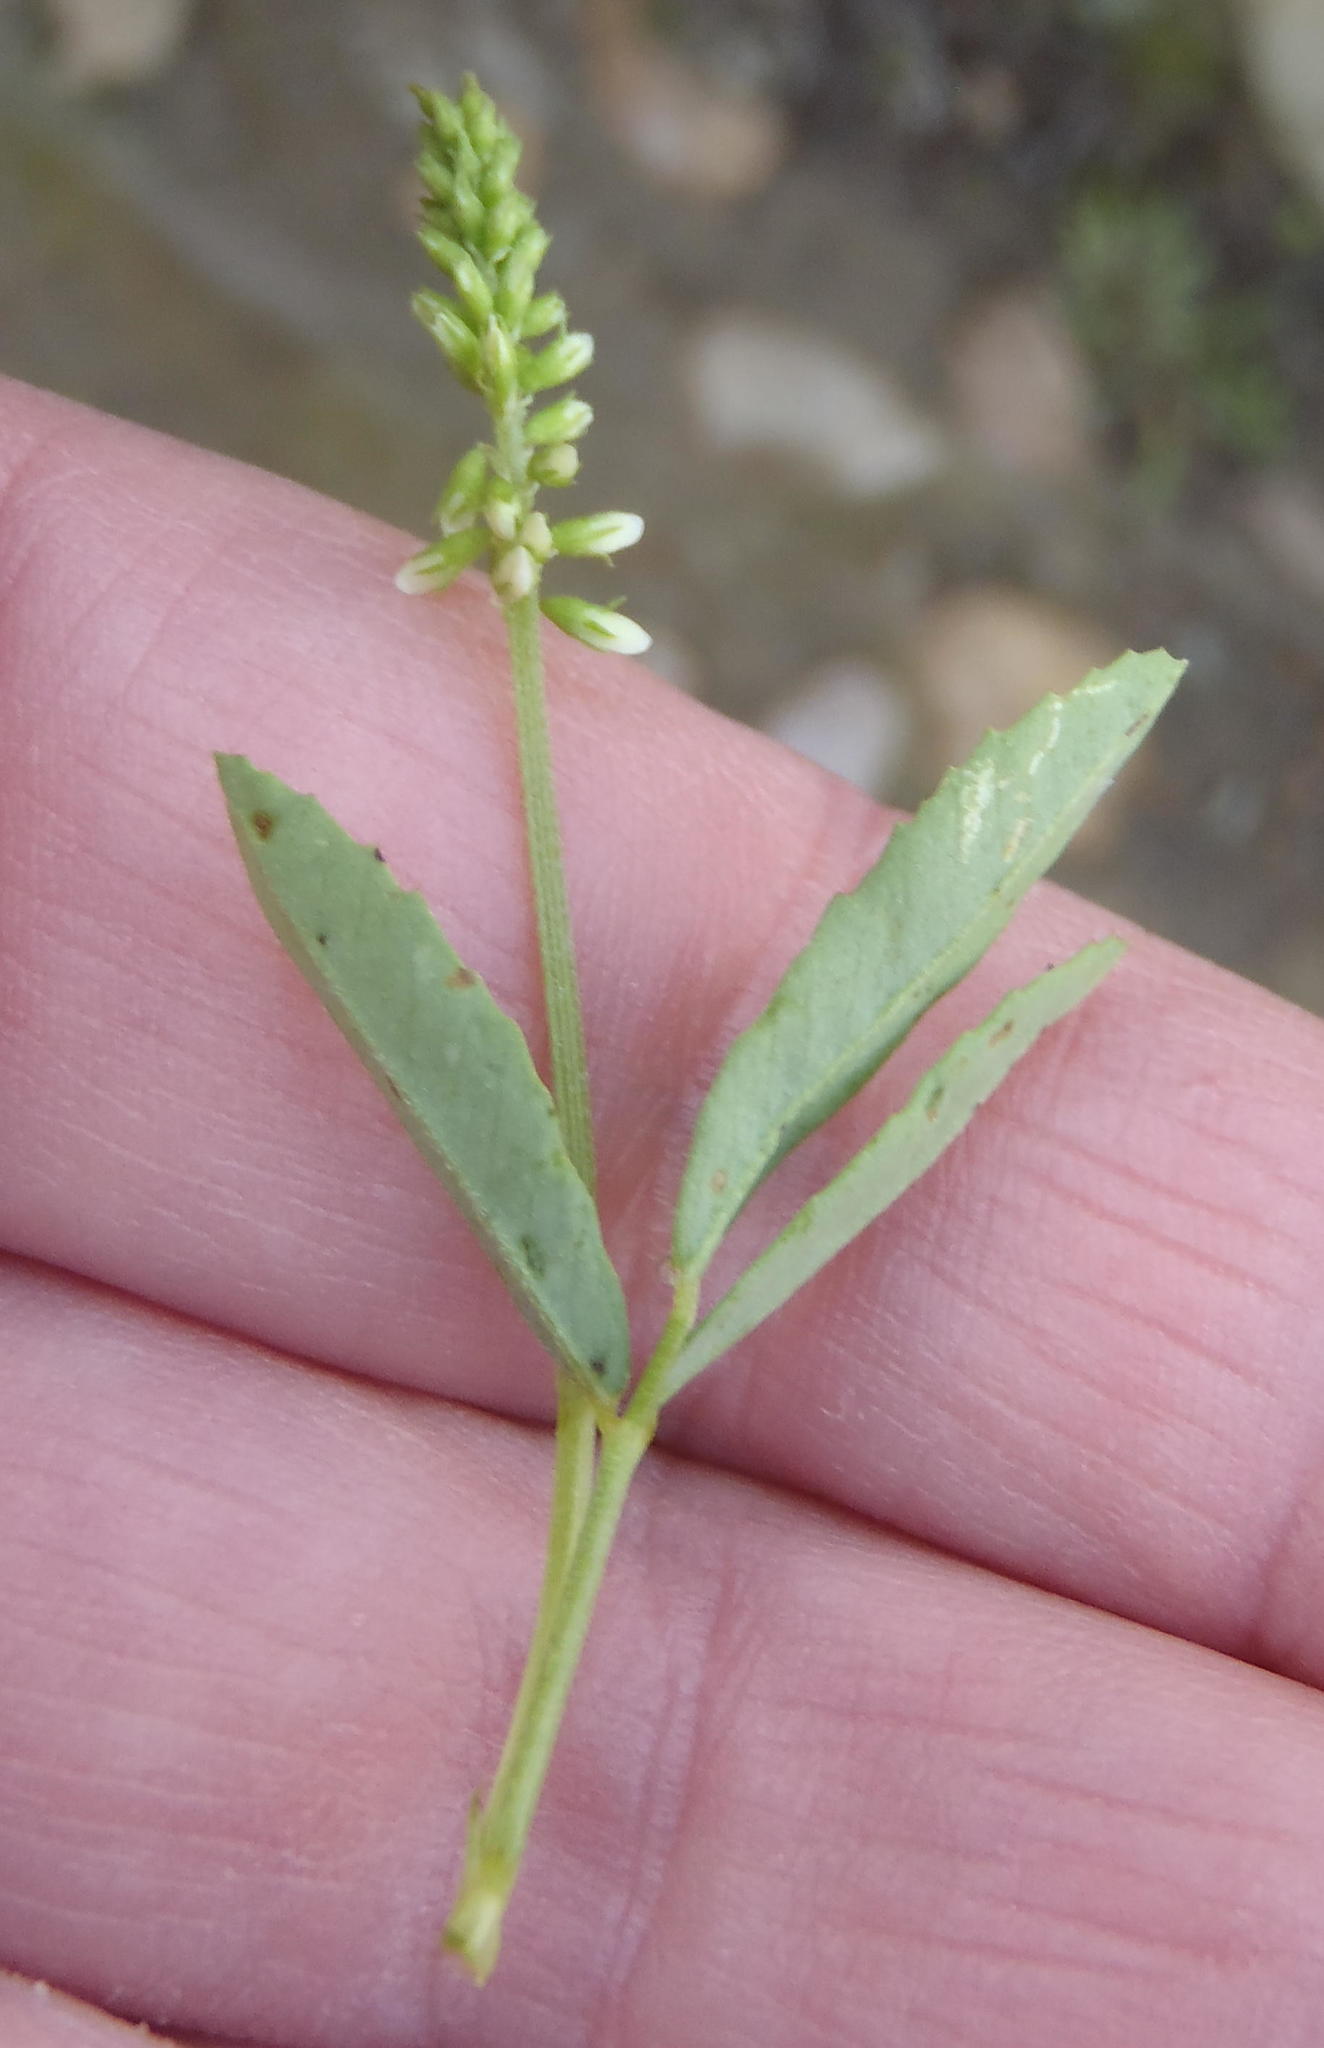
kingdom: Plantae
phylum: Tracheophyta
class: Magnoliopsida
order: Fabales
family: Fabaceae
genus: Melilotus
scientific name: Melilotus albus
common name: White melilot
